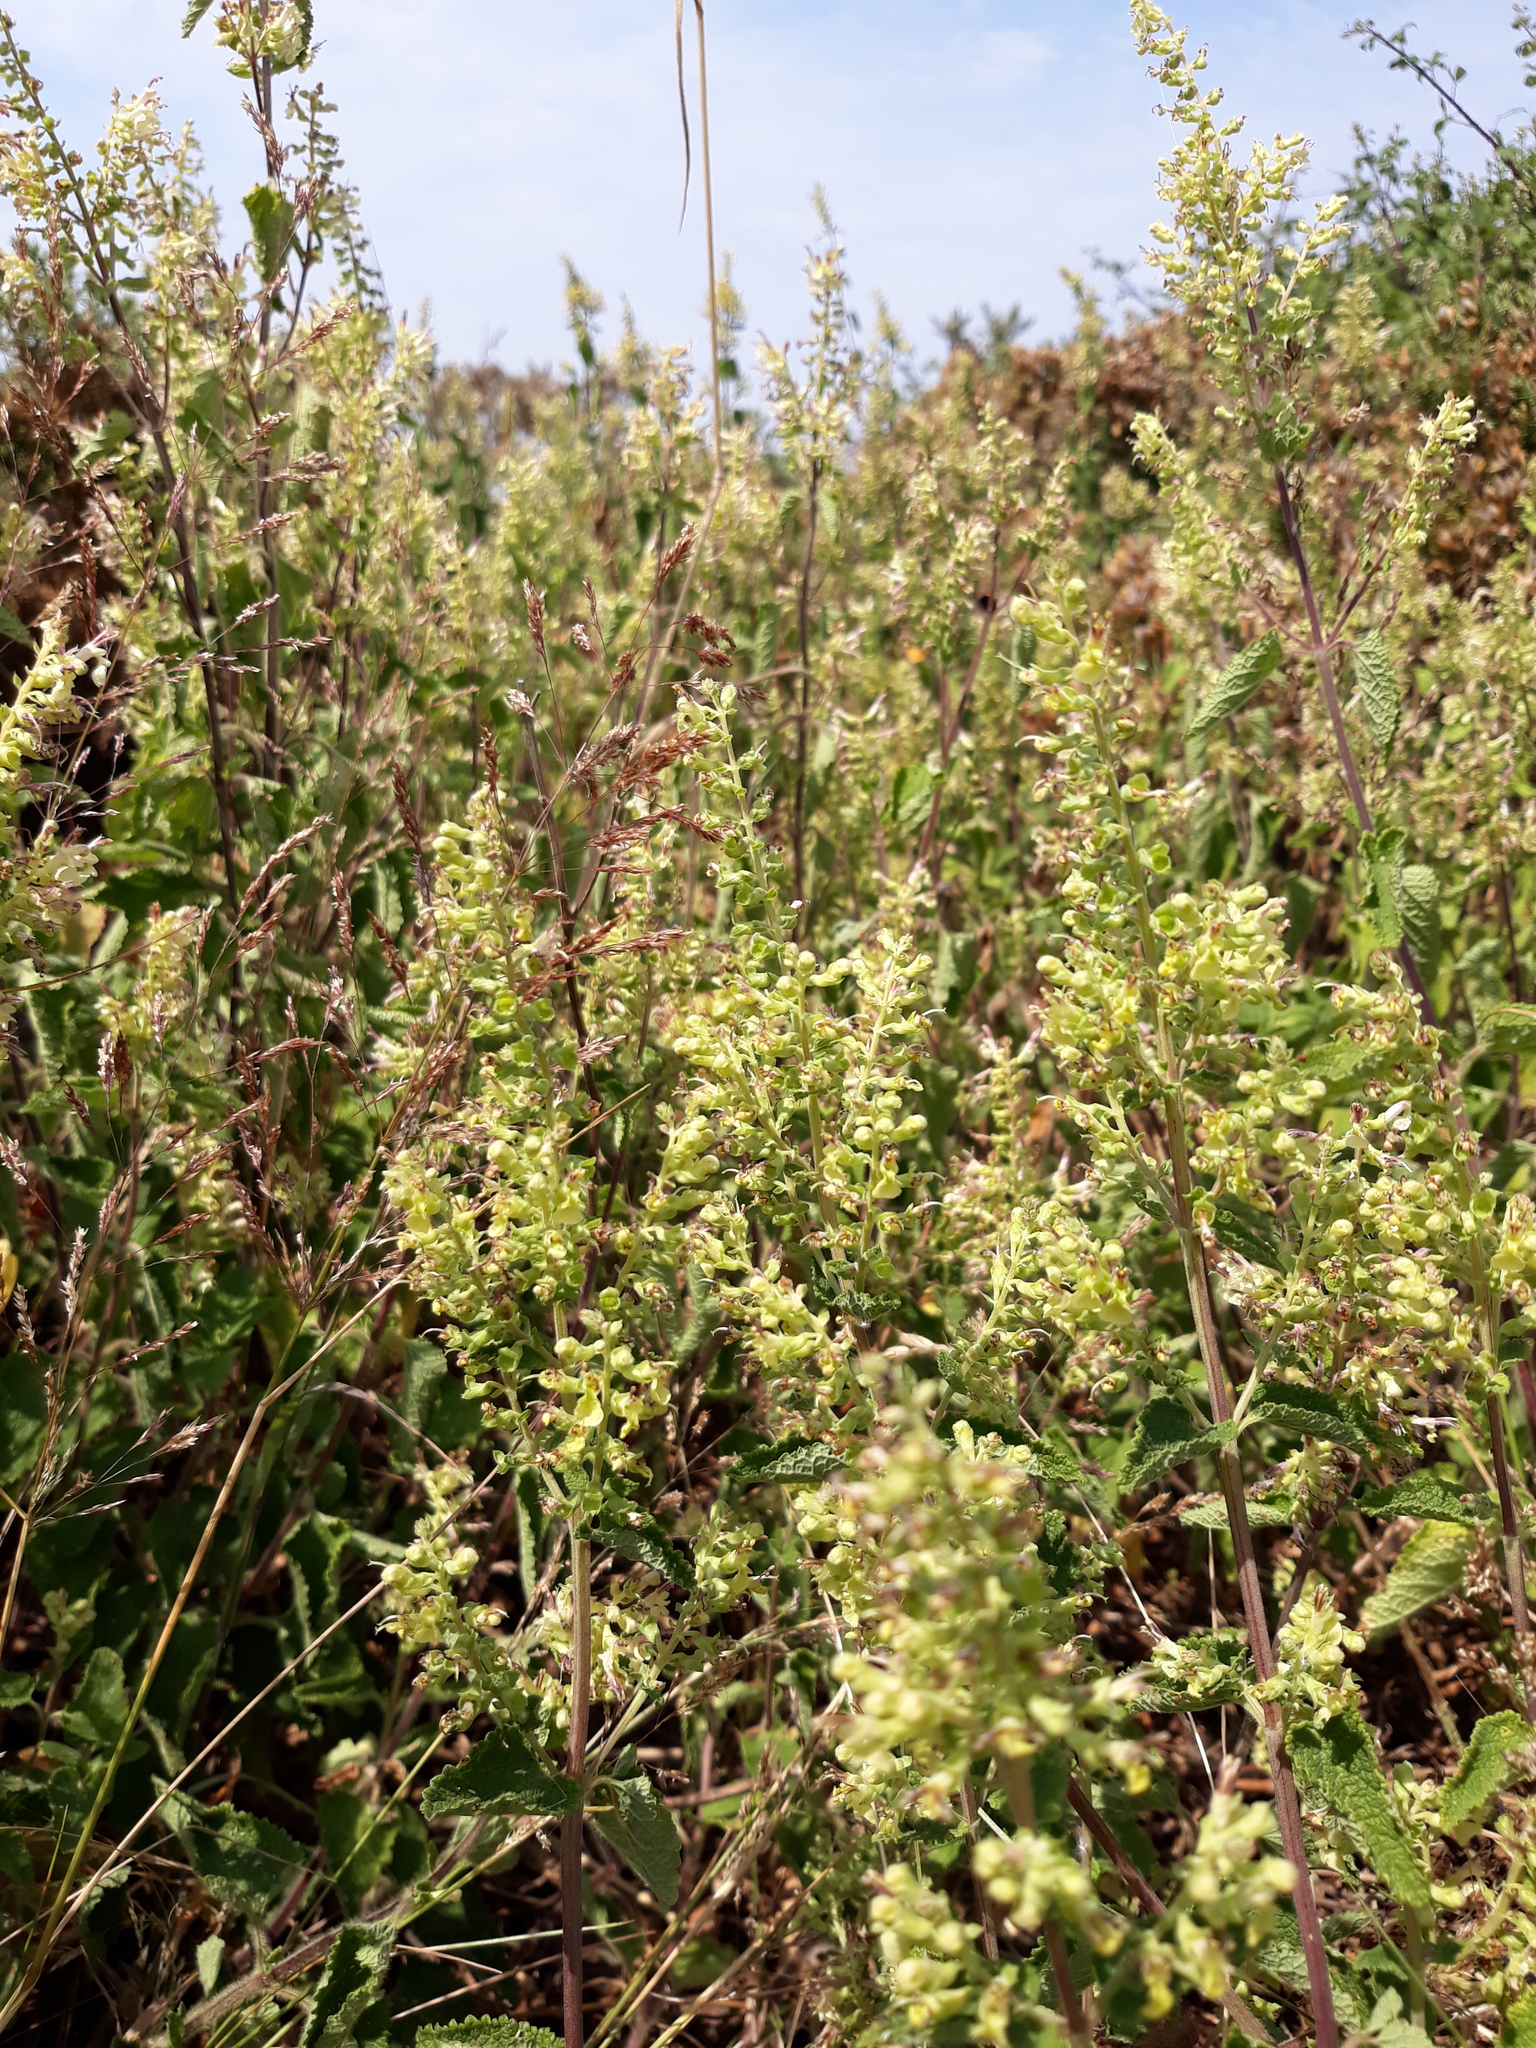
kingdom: Plantae
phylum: Tracheophyta
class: Magnoliopsida
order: Lamiales
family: Lamiaceae
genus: Teucrium
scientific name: Teucrium scorodonia
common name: Woodland germander
